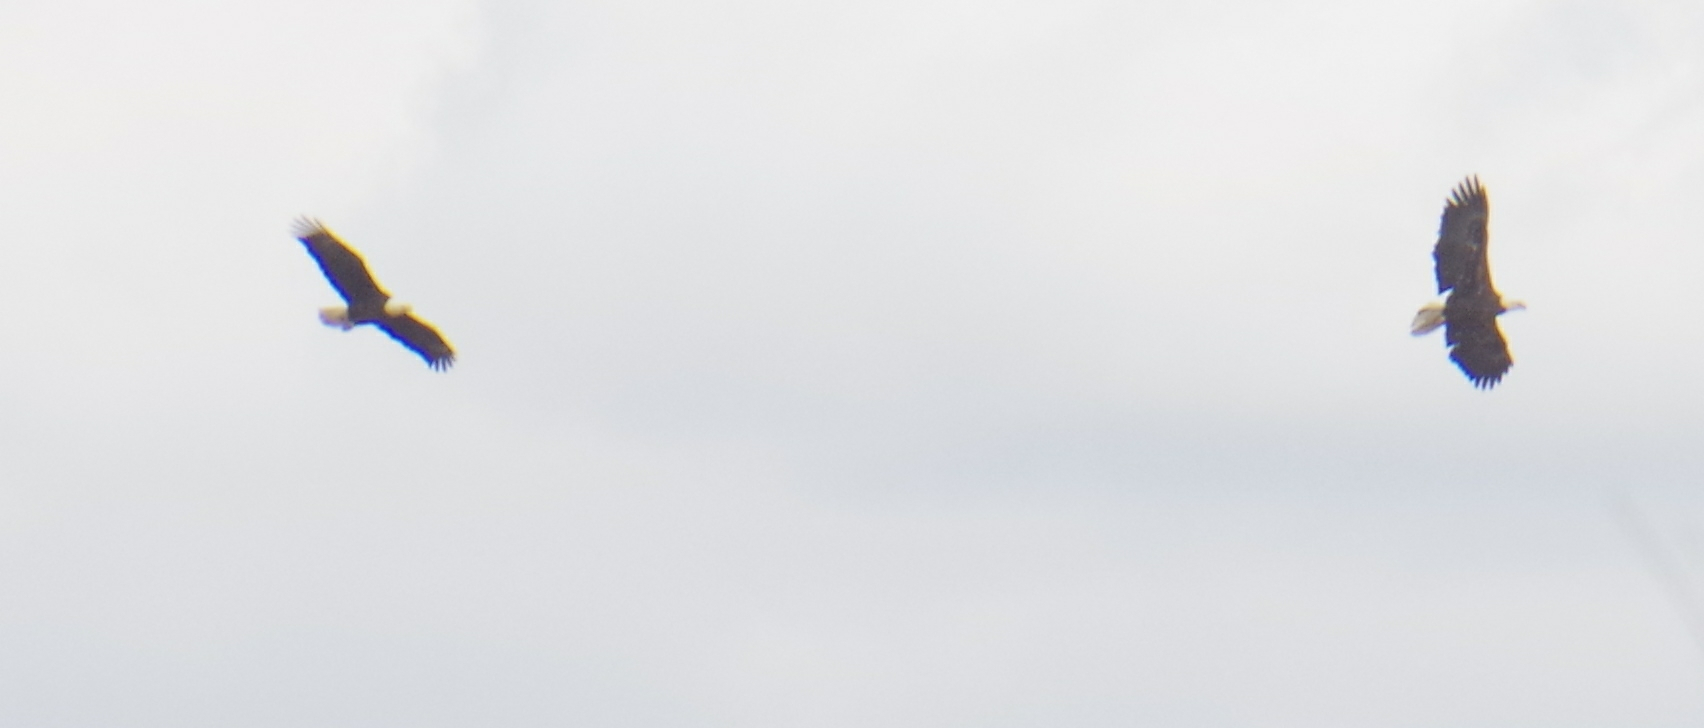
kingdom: Animalia
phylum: Chordata
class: Aves
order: Accipitriformes
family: Accipitridae
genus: Haliaeetus
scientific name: Haliaeetus leucocephalus
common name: Bald eagle
